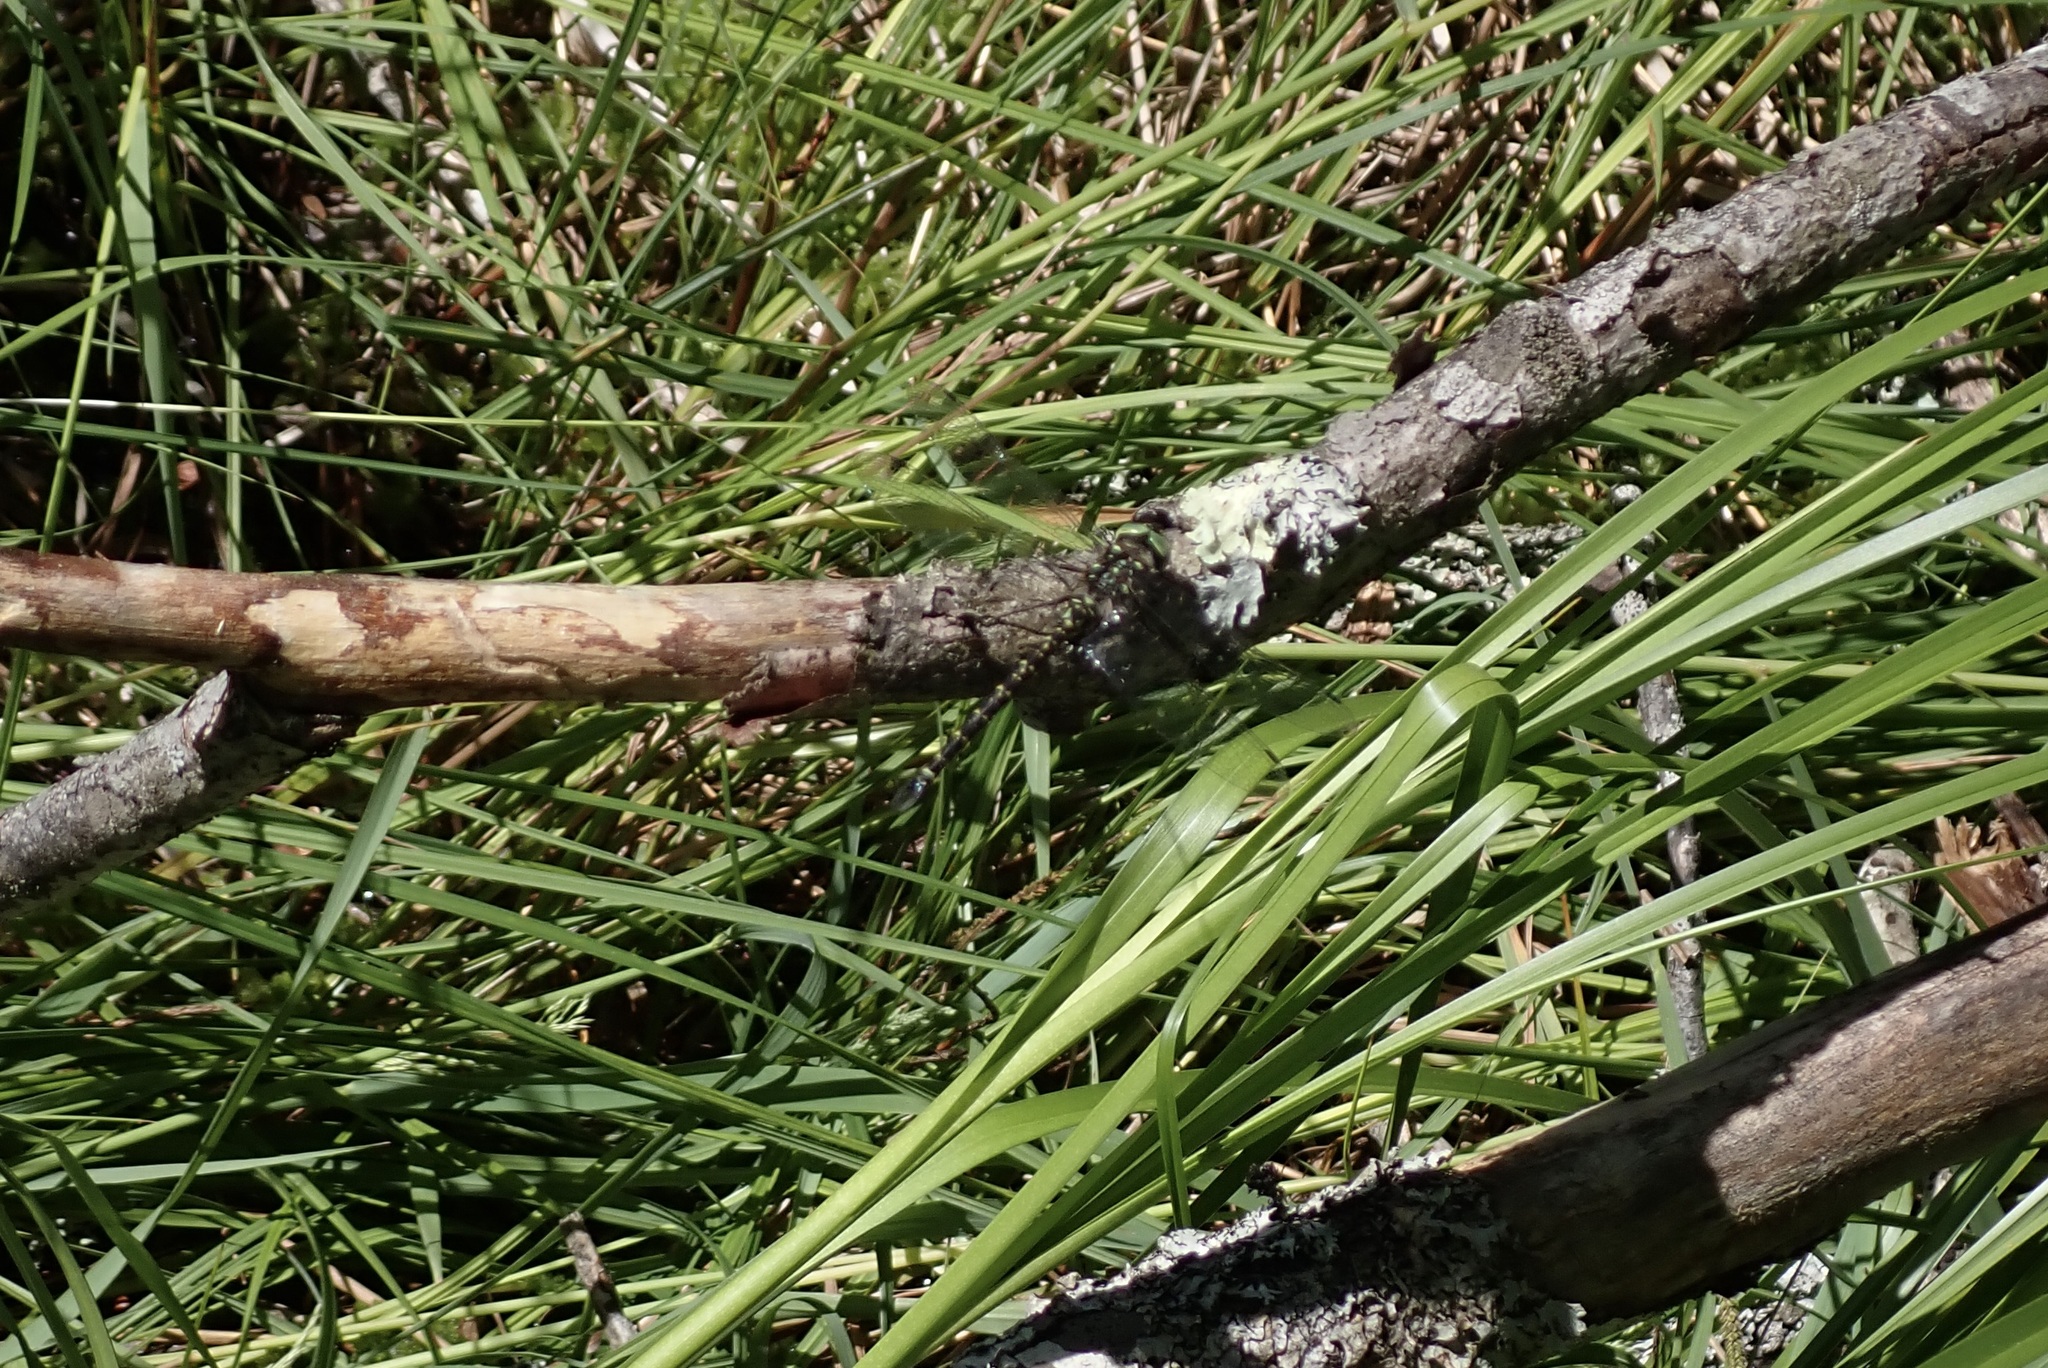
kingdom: Animalia
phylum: Arthropoda
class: Insecta
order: Odonata
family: Aeshnidae
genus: Gomphaeschna
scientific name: Gomphaeschna furcillata
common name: Harlequin darner
